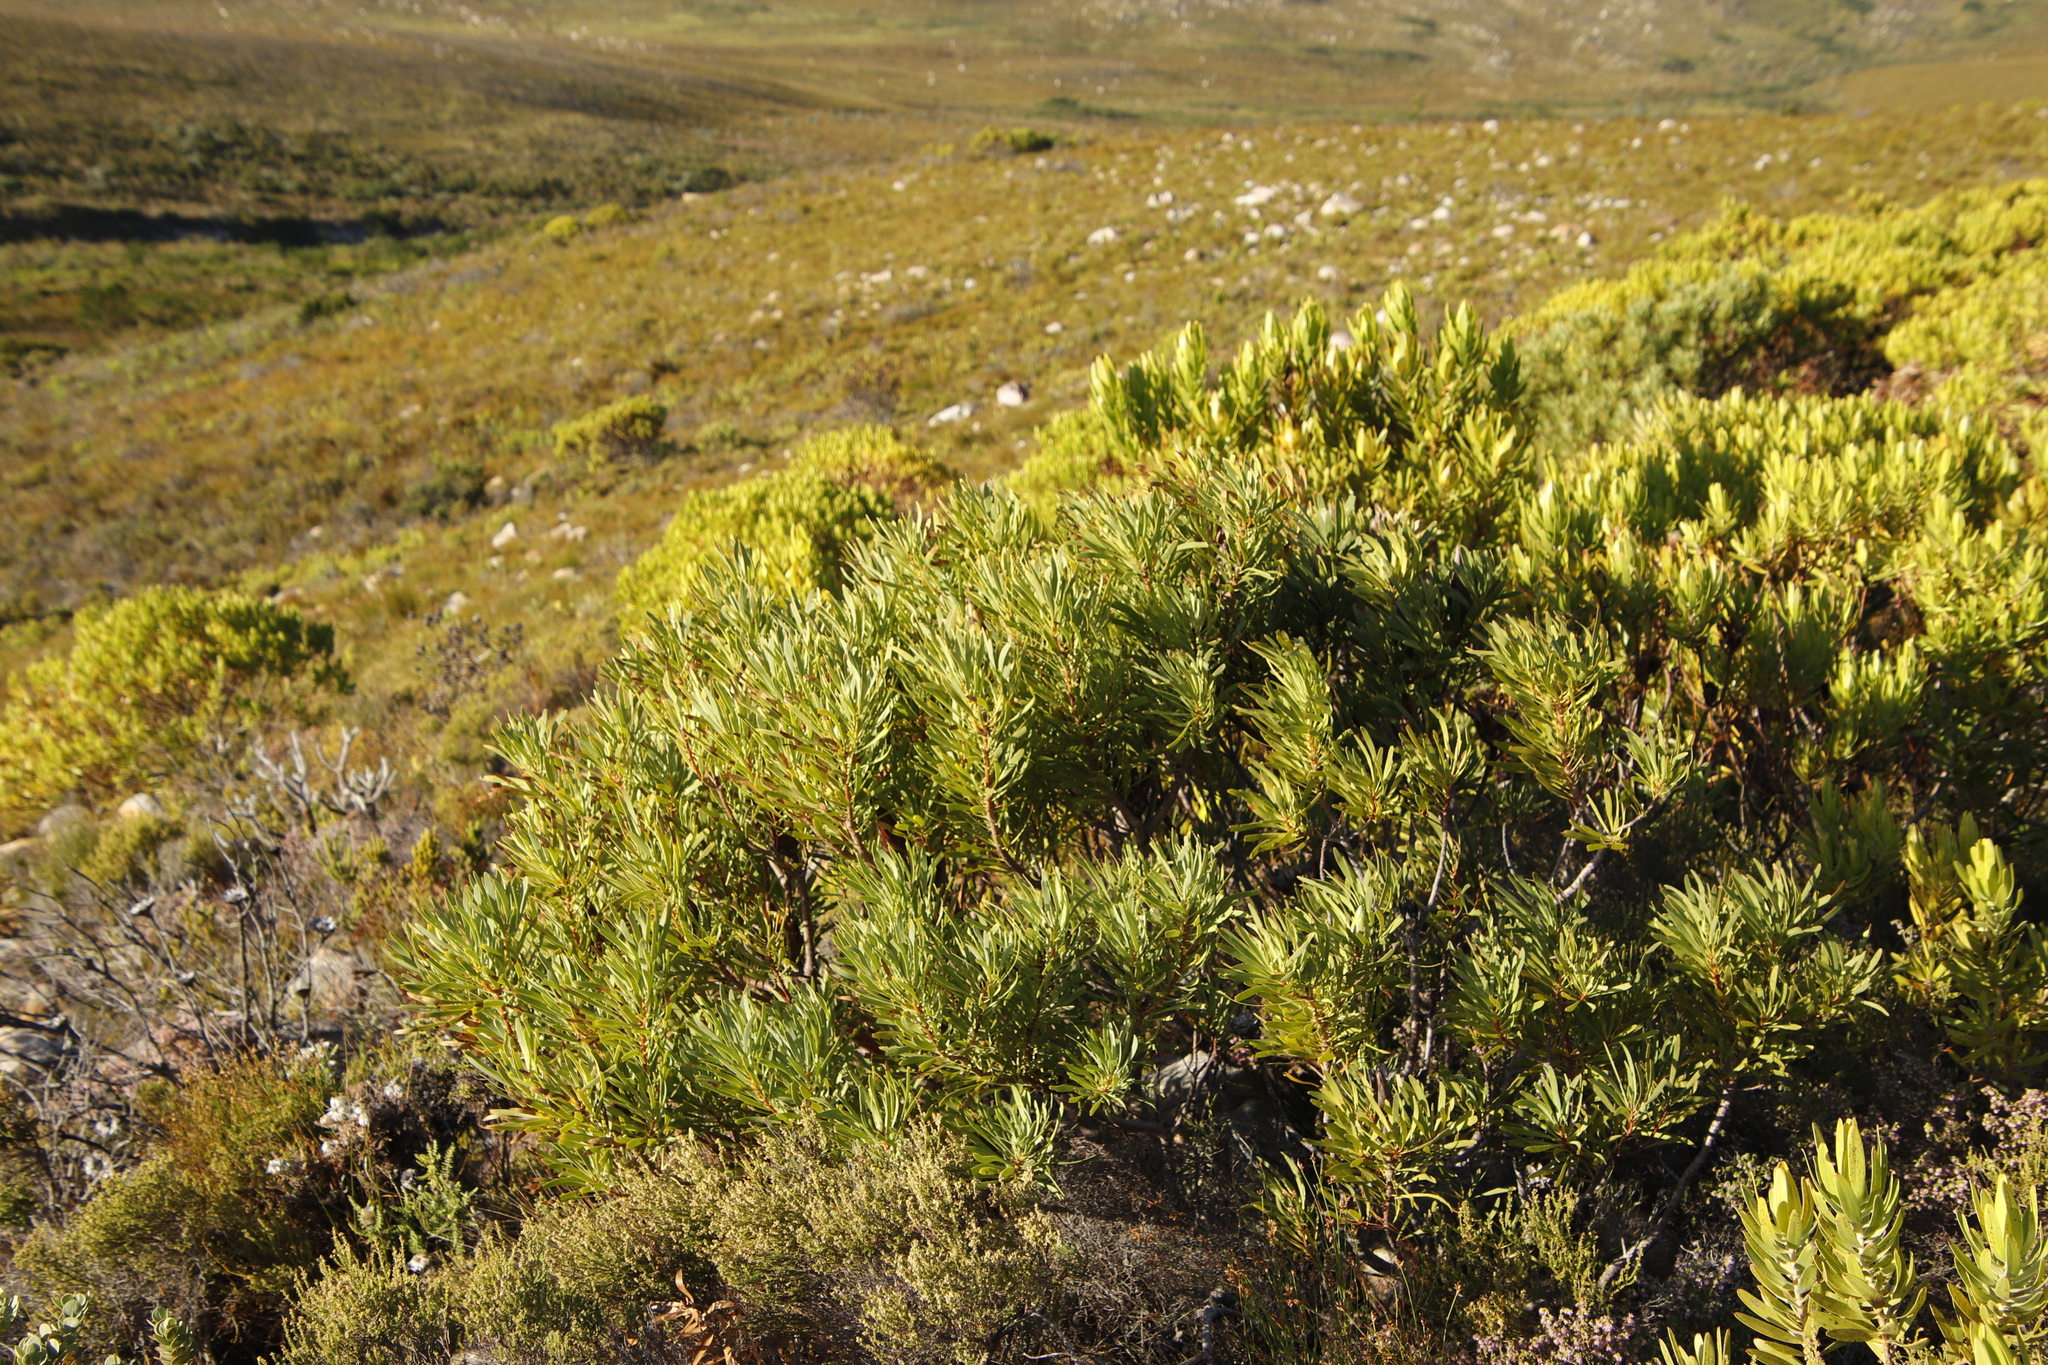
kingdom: Plantae
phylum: Tracheophyta
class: Magnoliopsida
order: Proteales
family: Proteaceae
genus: Protea
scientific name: Protea repens
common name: Sugarbush
